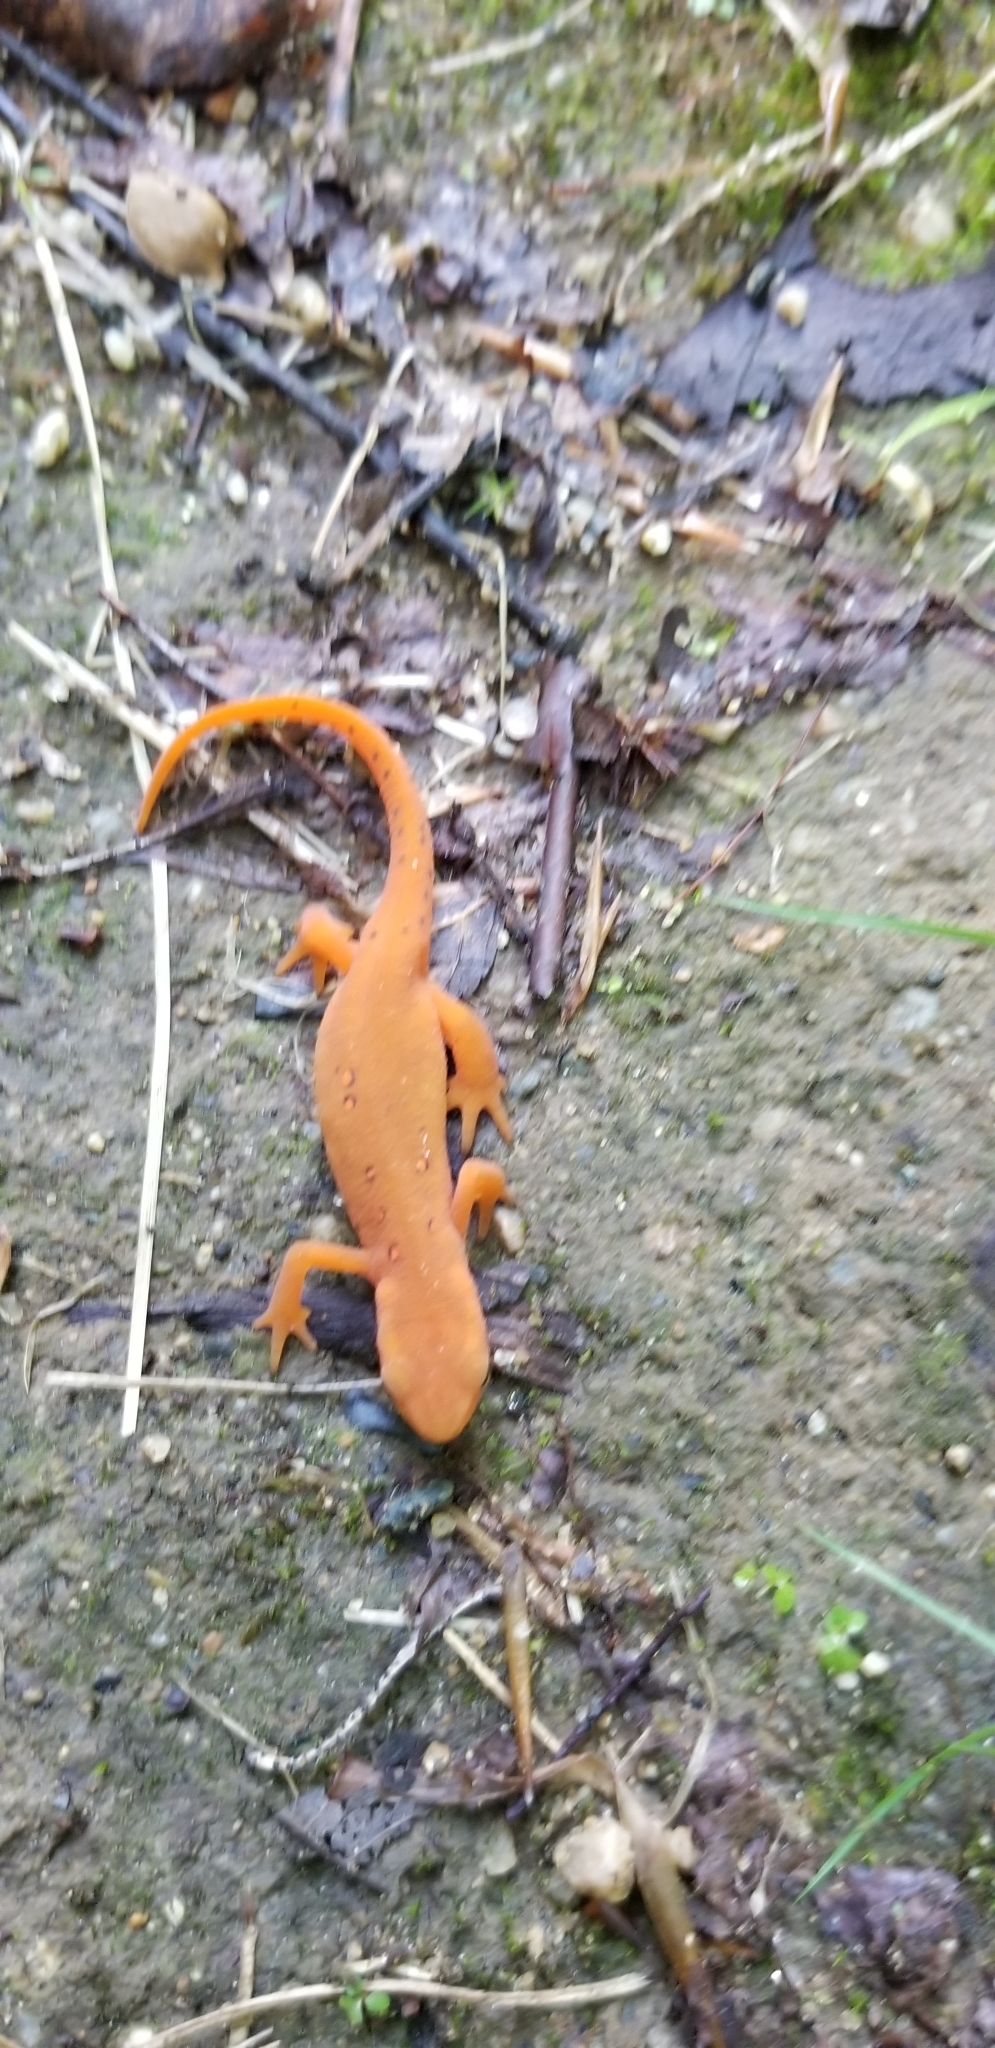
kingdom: Animalia
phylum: Chordata
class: Amphibia
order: Caudata
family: Salamandridae
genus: Notophthalmus
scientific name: Notophthalmus viridescens
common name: Eastern newt
